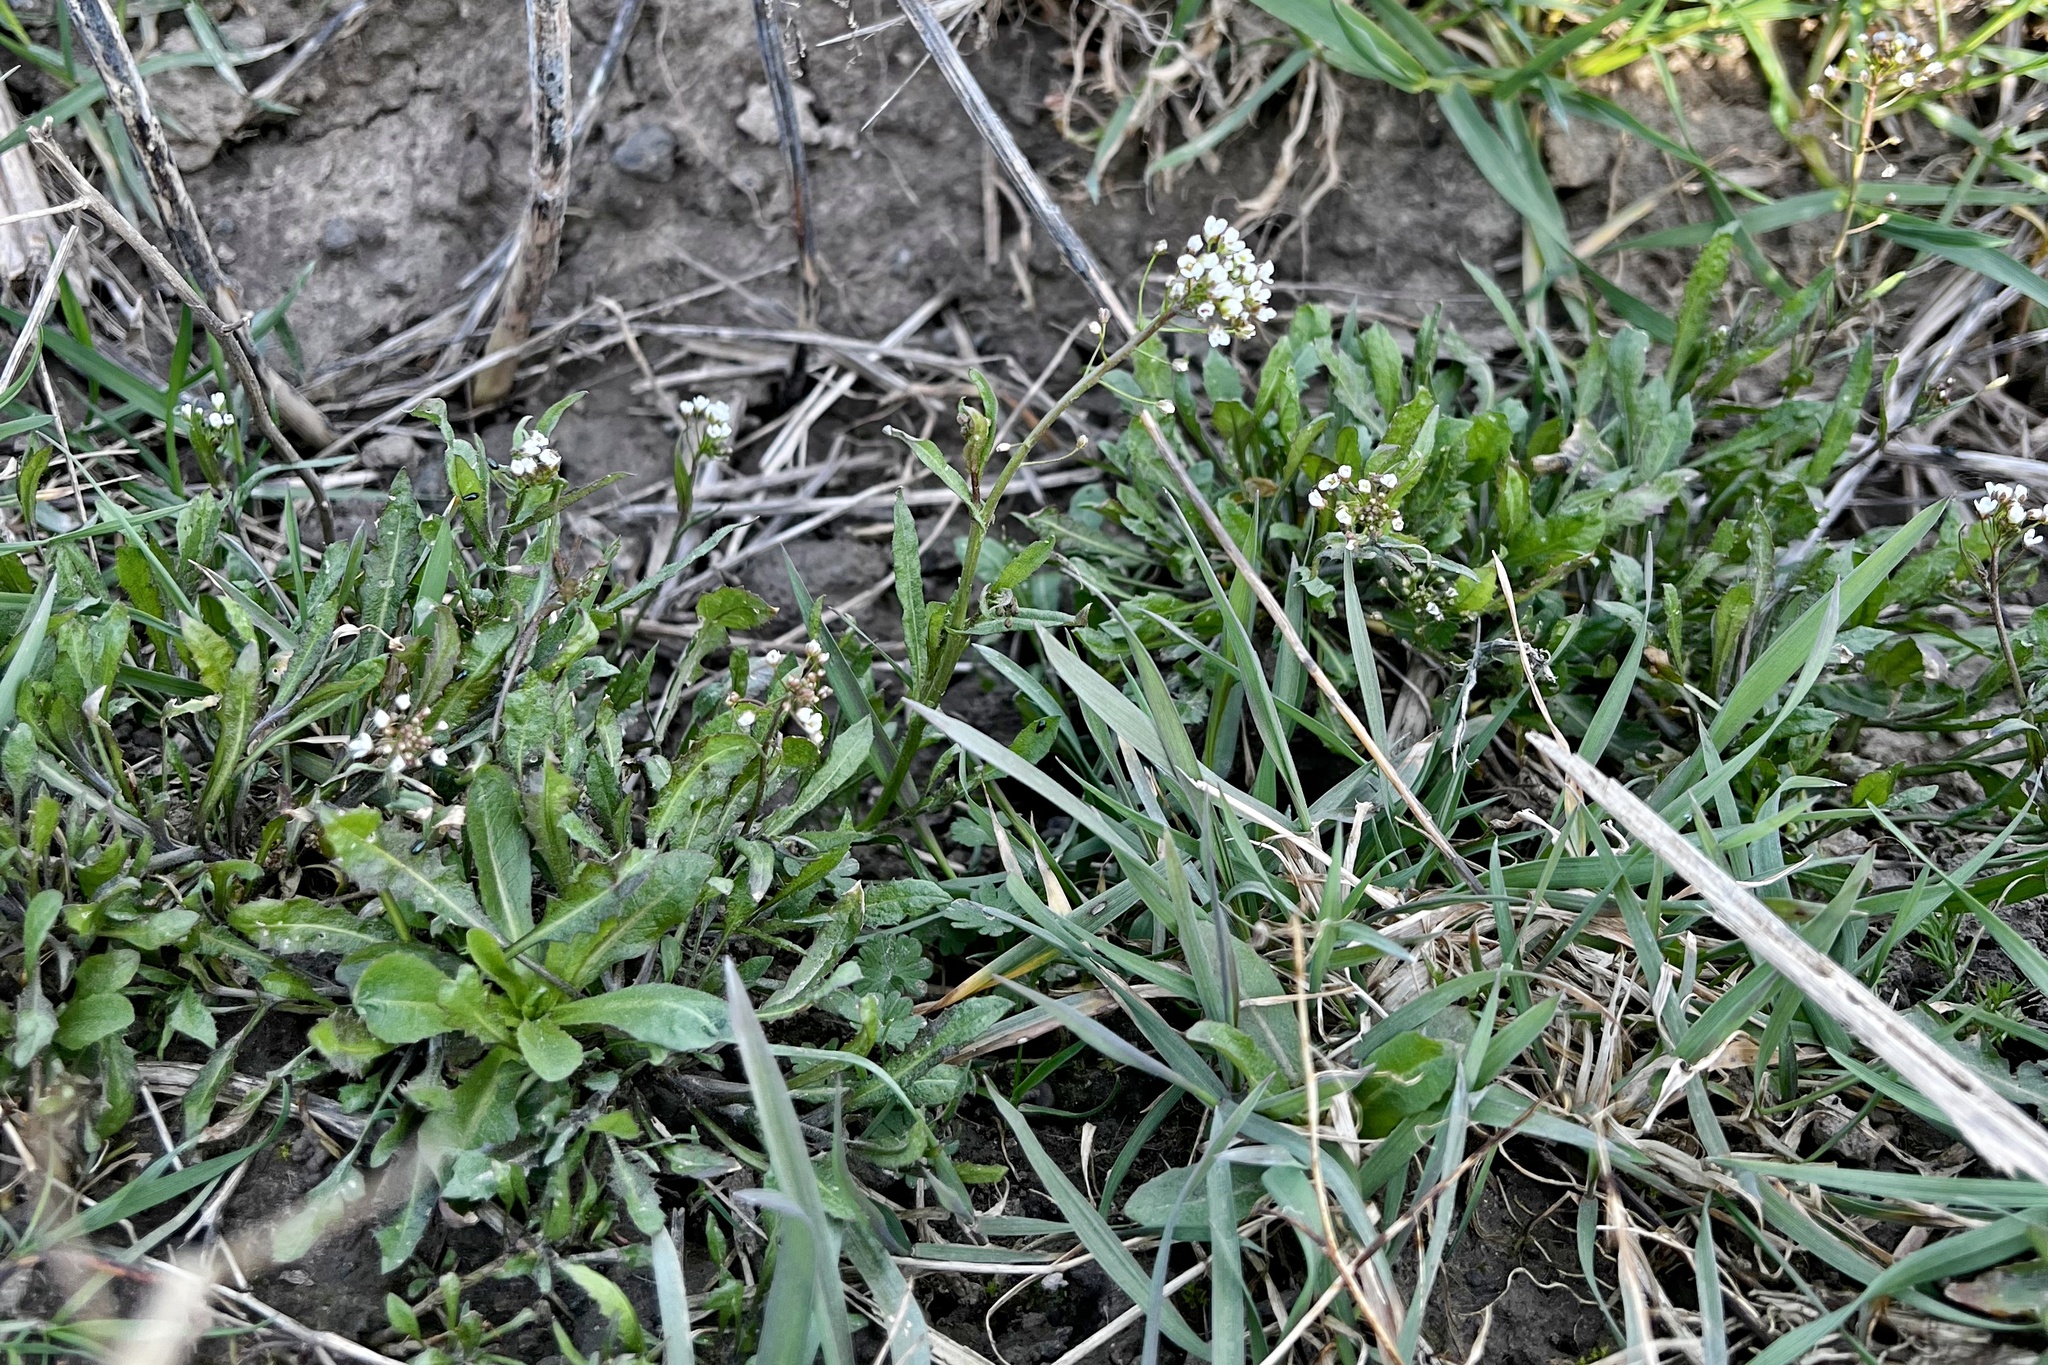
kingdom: Plantae
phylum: Tracheophyta
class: Magnoliopsida
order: Brassicales
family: Brassicaceae
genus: Capsella
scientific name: Capsella bursa-pastoris
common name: Shepherd's purse
